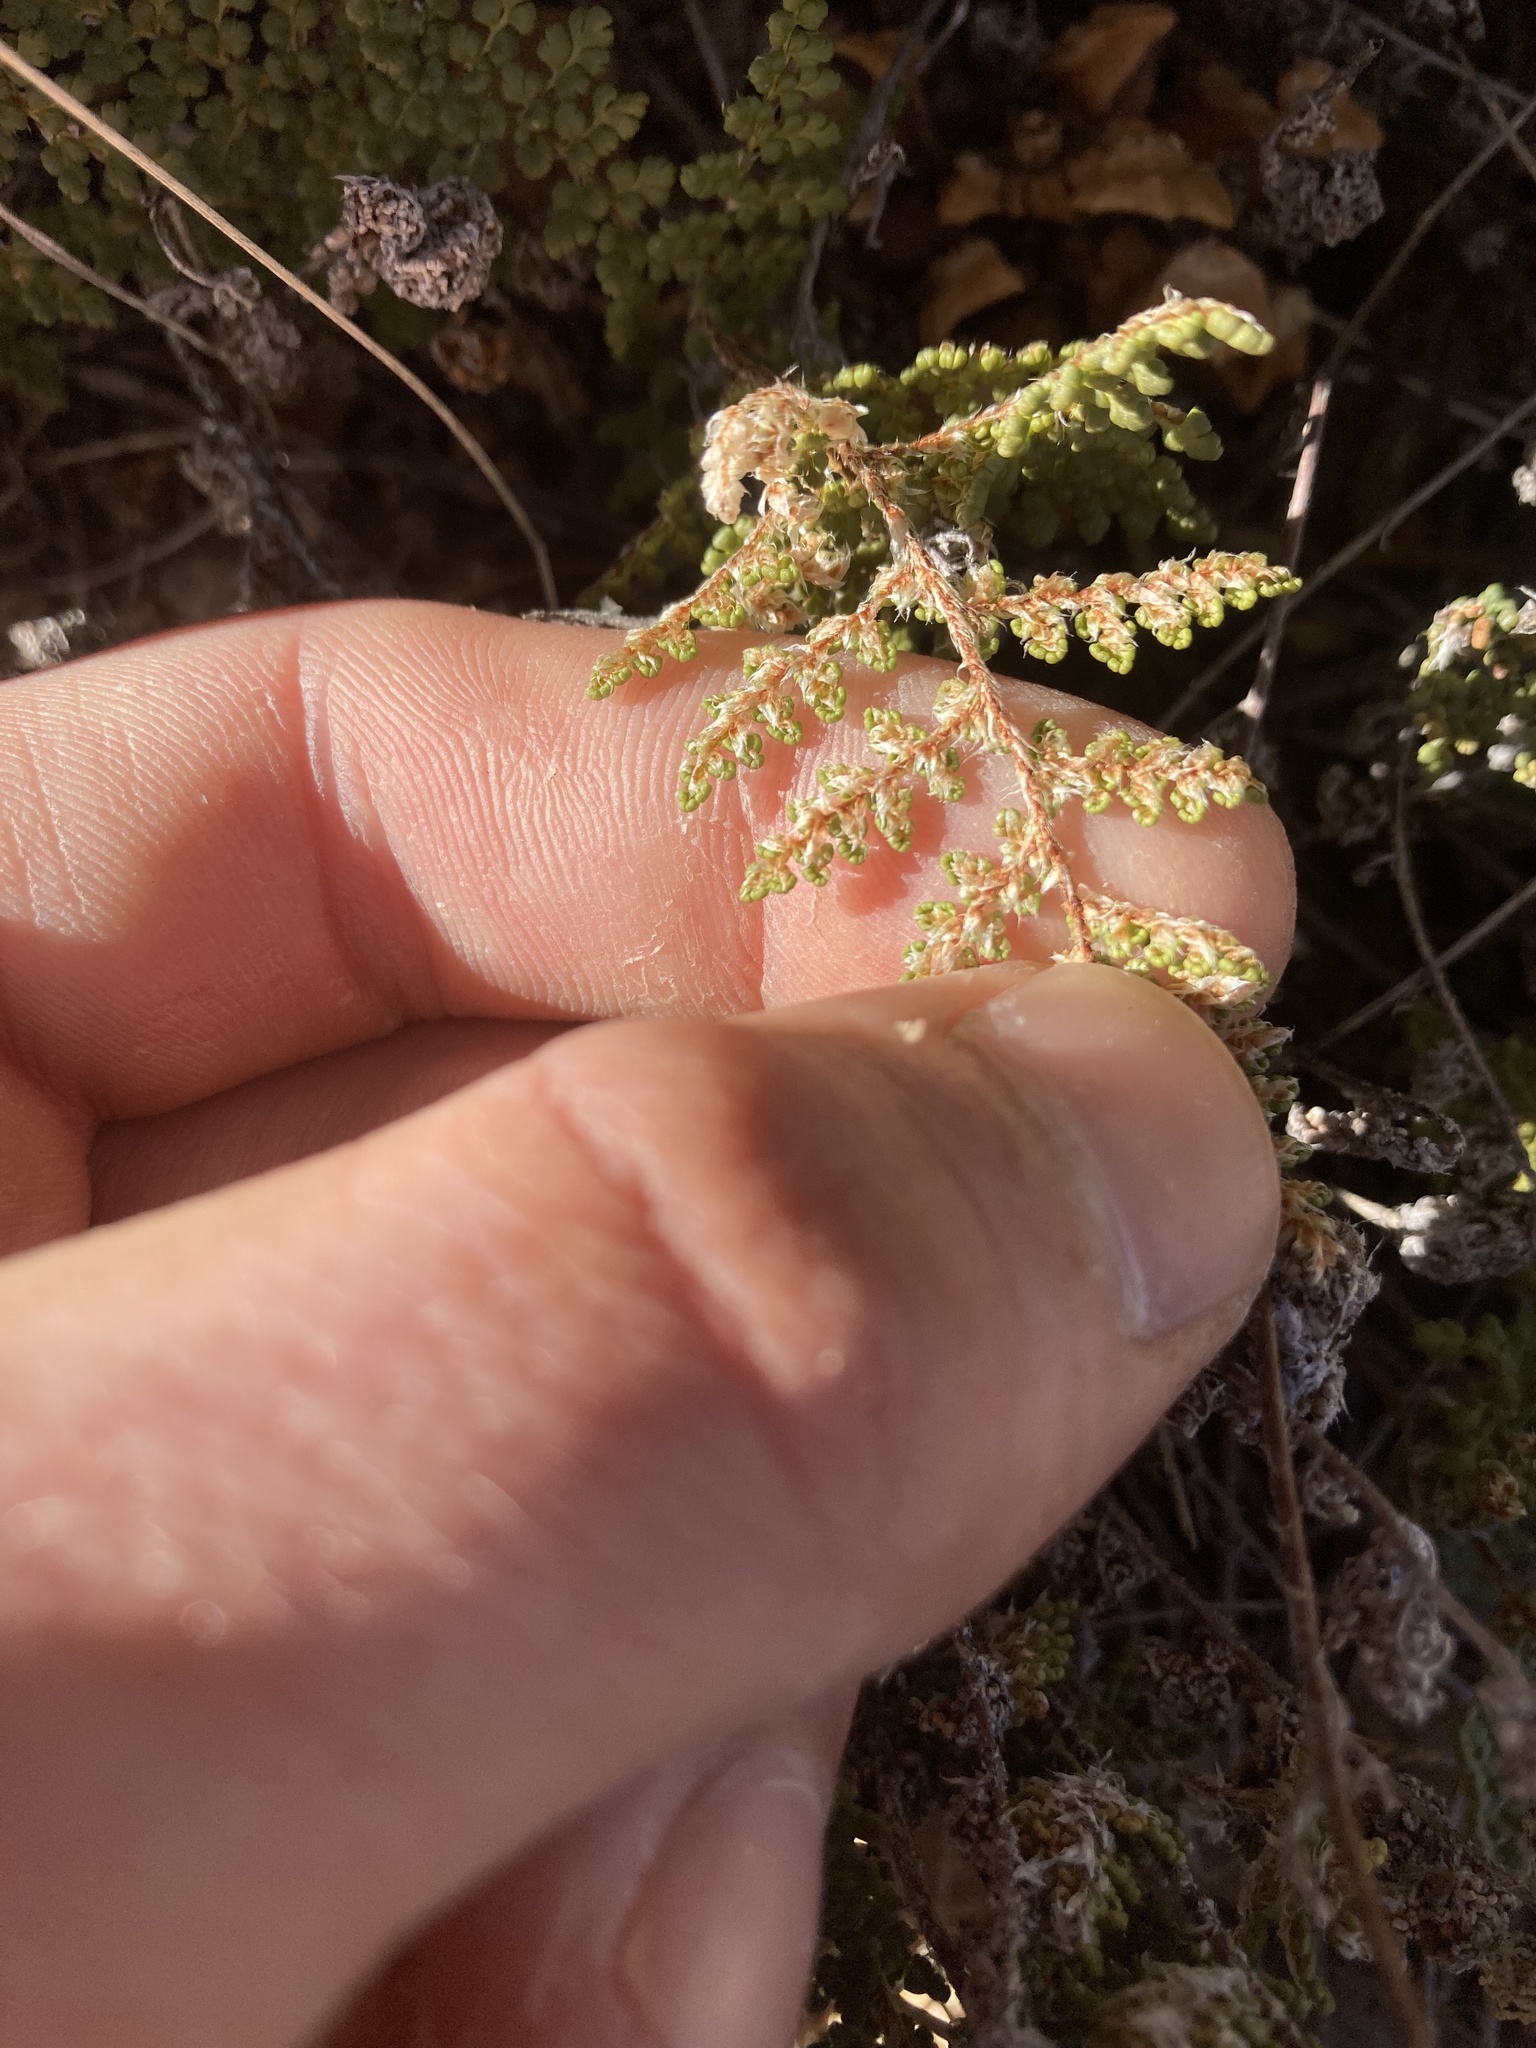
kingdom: Plantae
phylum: Tracheophyta
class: Polypodiopsida
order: Polypodiales
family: Pteridaceae
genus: Myriopteris
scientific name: Myriopteris fendleri
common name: Fendler's lip fern
